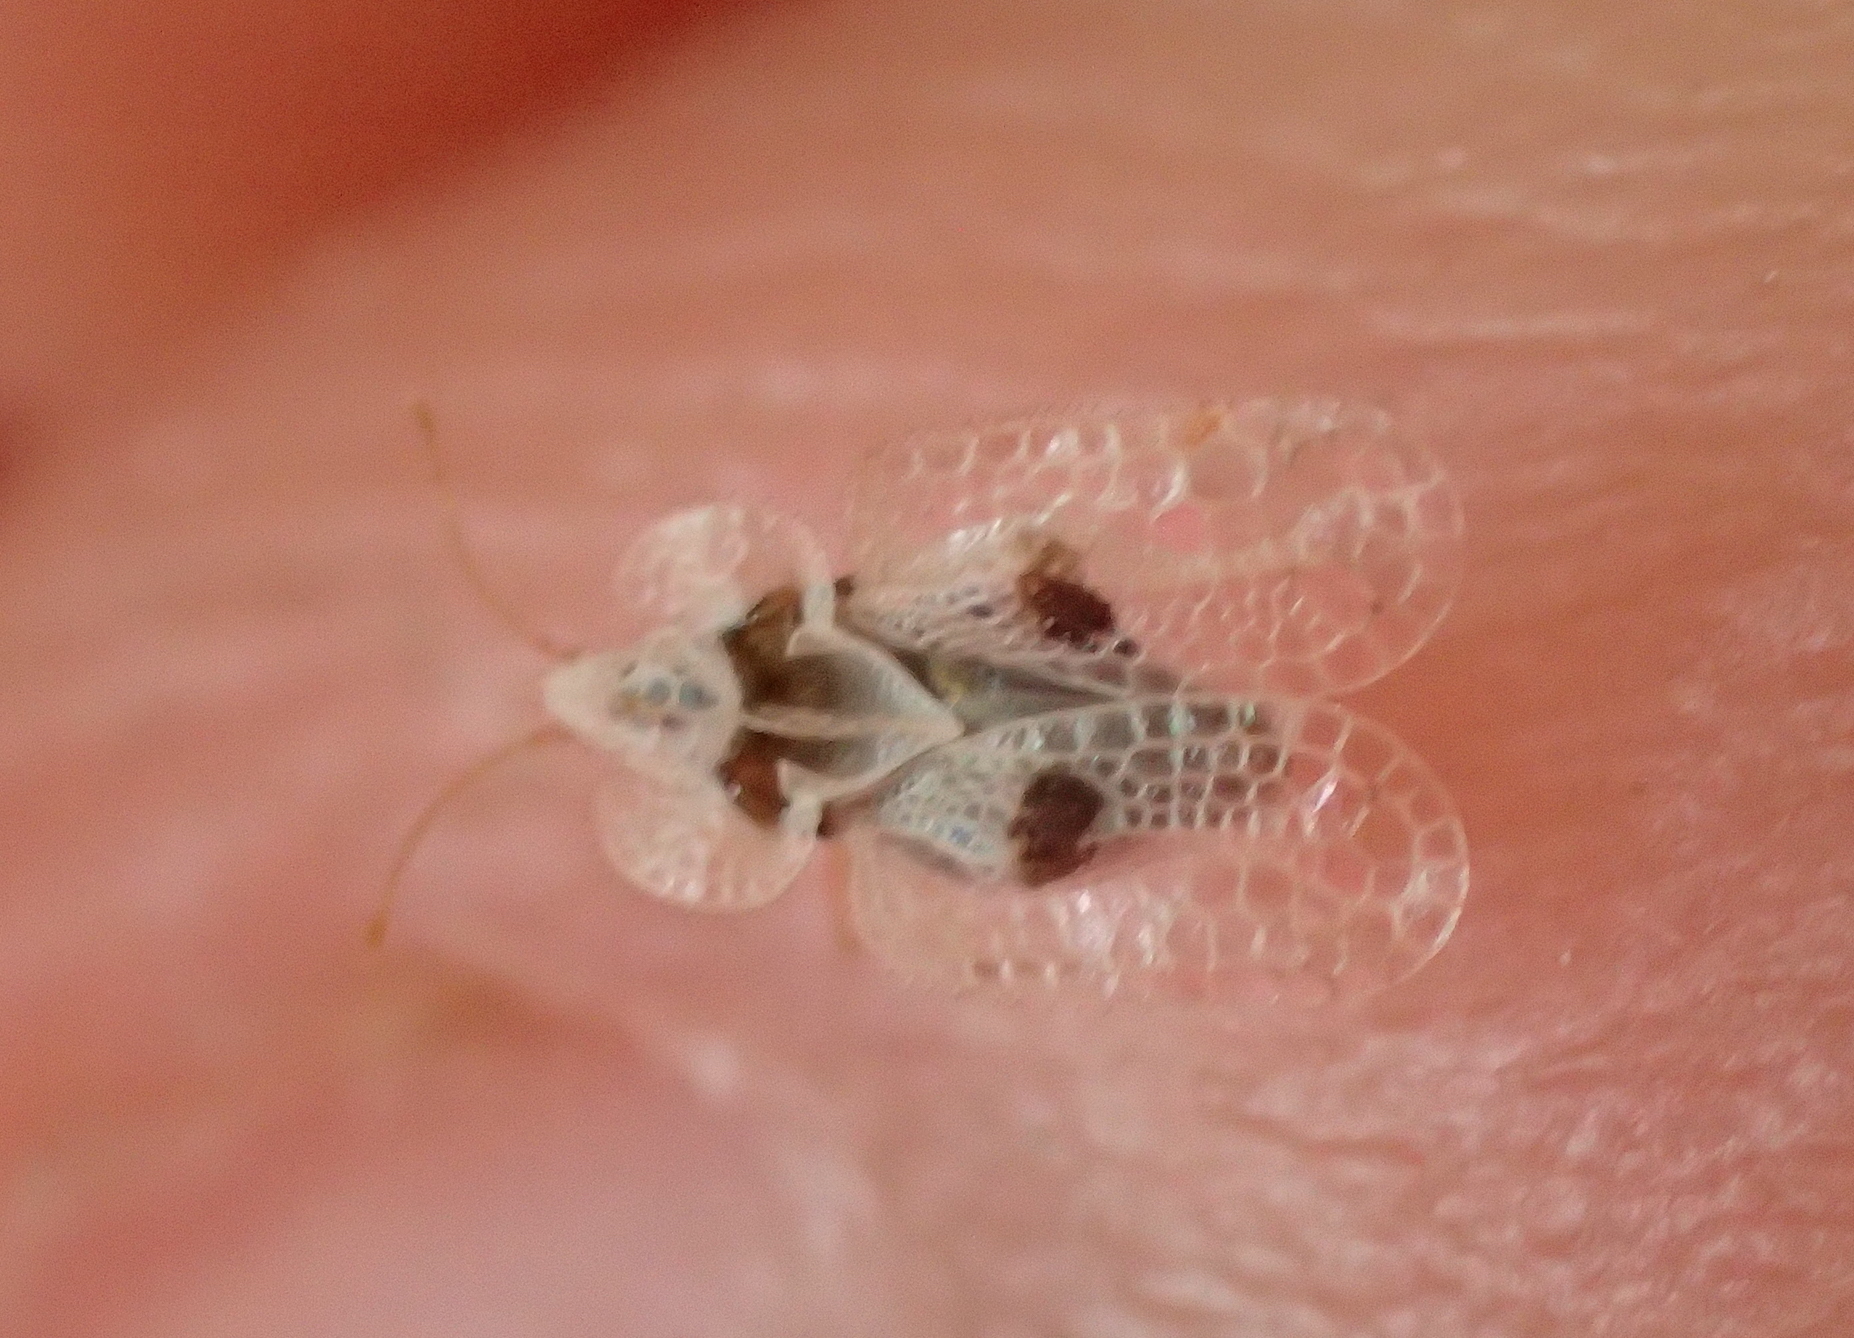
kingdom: Animalia
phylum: Arthropoda
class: Insecta
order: Hemiptera
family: Tingidae
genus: Corythucha
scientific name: Corythucha ciliata
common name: Sycamore lace bug
